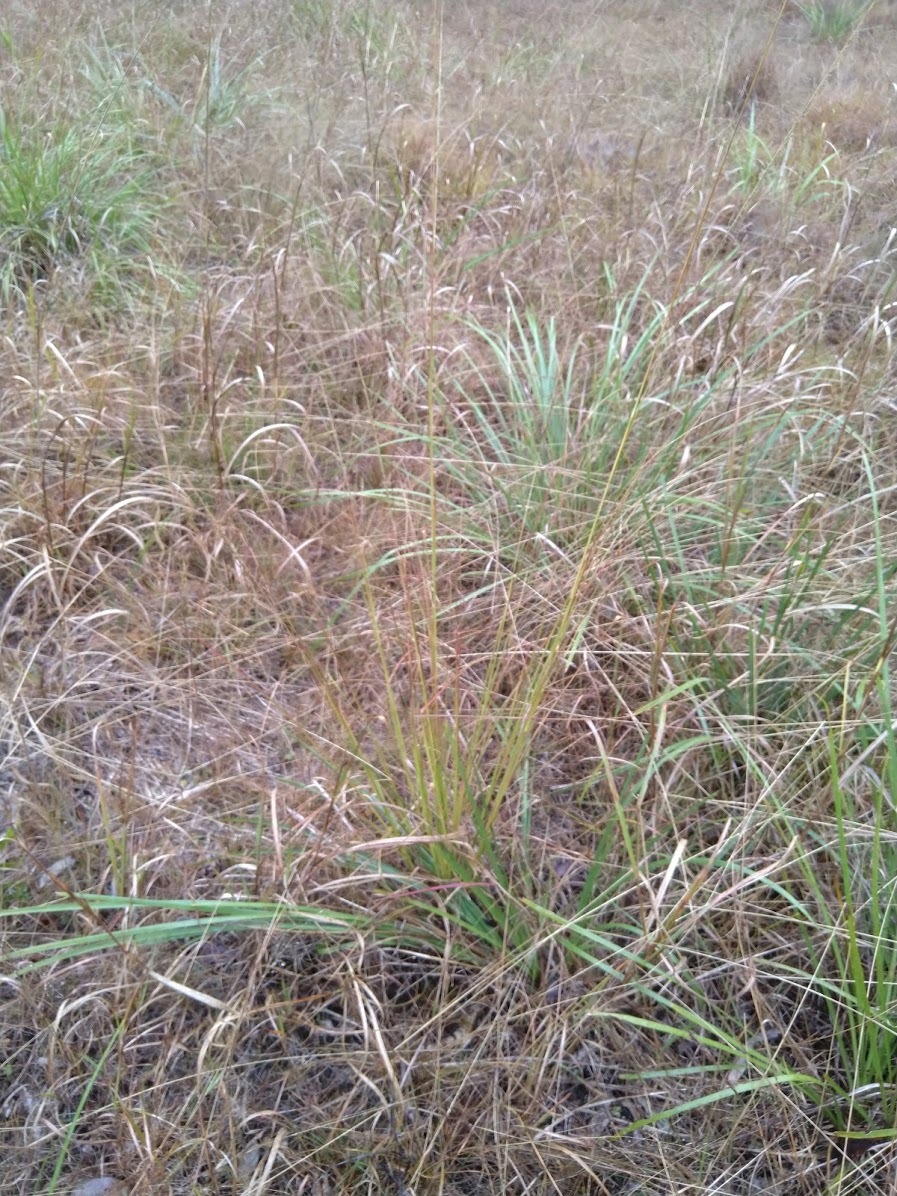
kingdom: Plantae
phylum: Tracheophyta
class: Liliopsida
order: Poales
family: Poaceae
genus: Sporobolus
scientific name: Sporobolus natalensis
